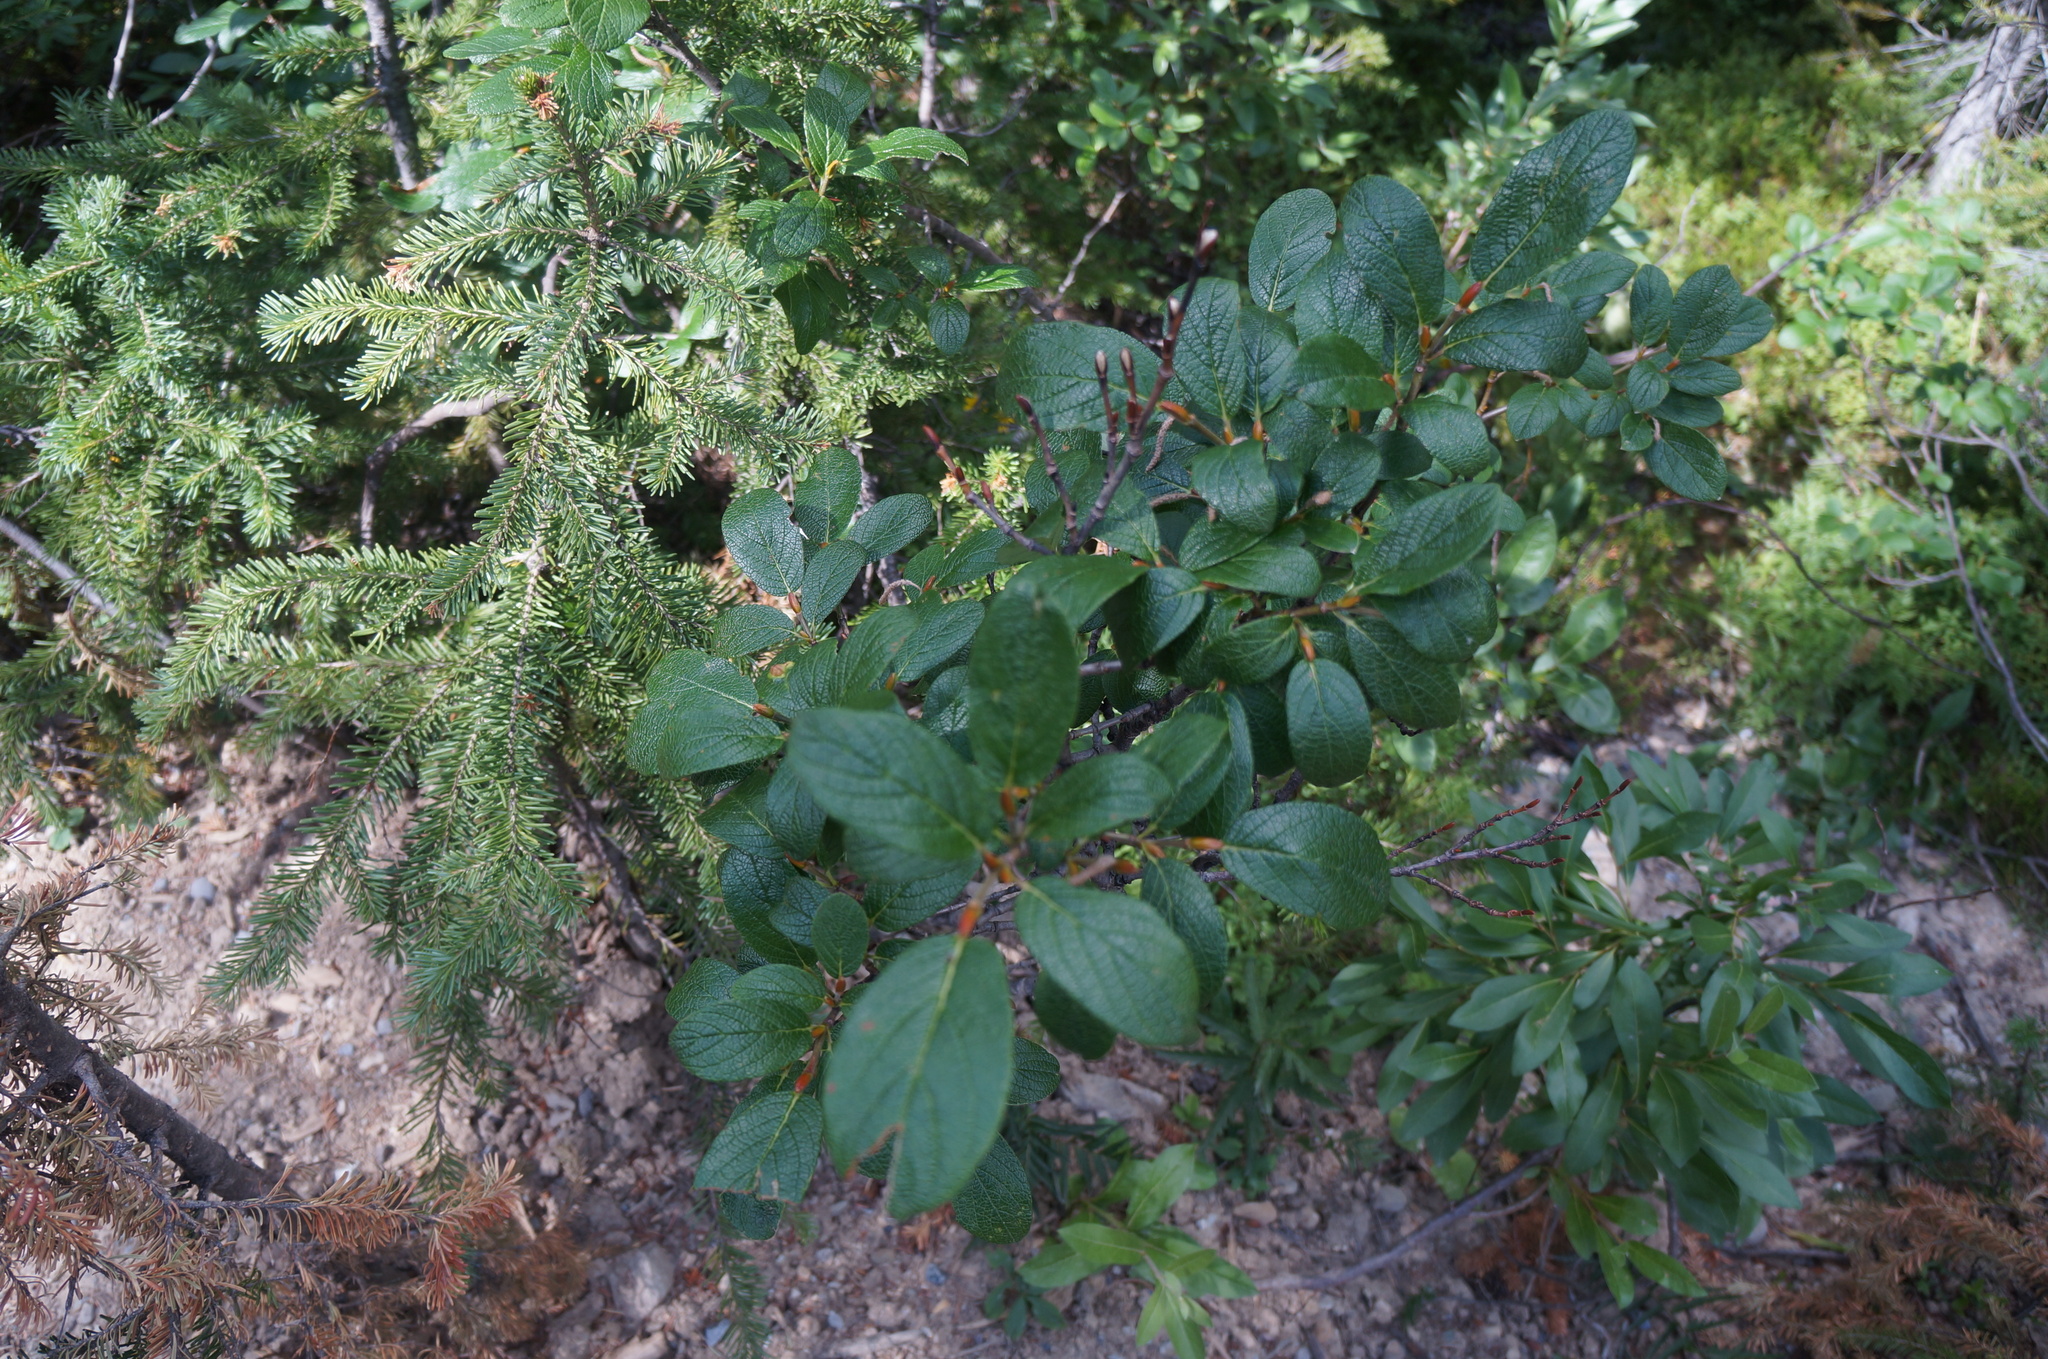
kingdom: Plantae
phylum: Tracheophyta
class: Magnoliopsida
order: Malpighiales
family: Salicaceae
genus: Salix
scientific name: Salix vestita
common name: Hairy willow
